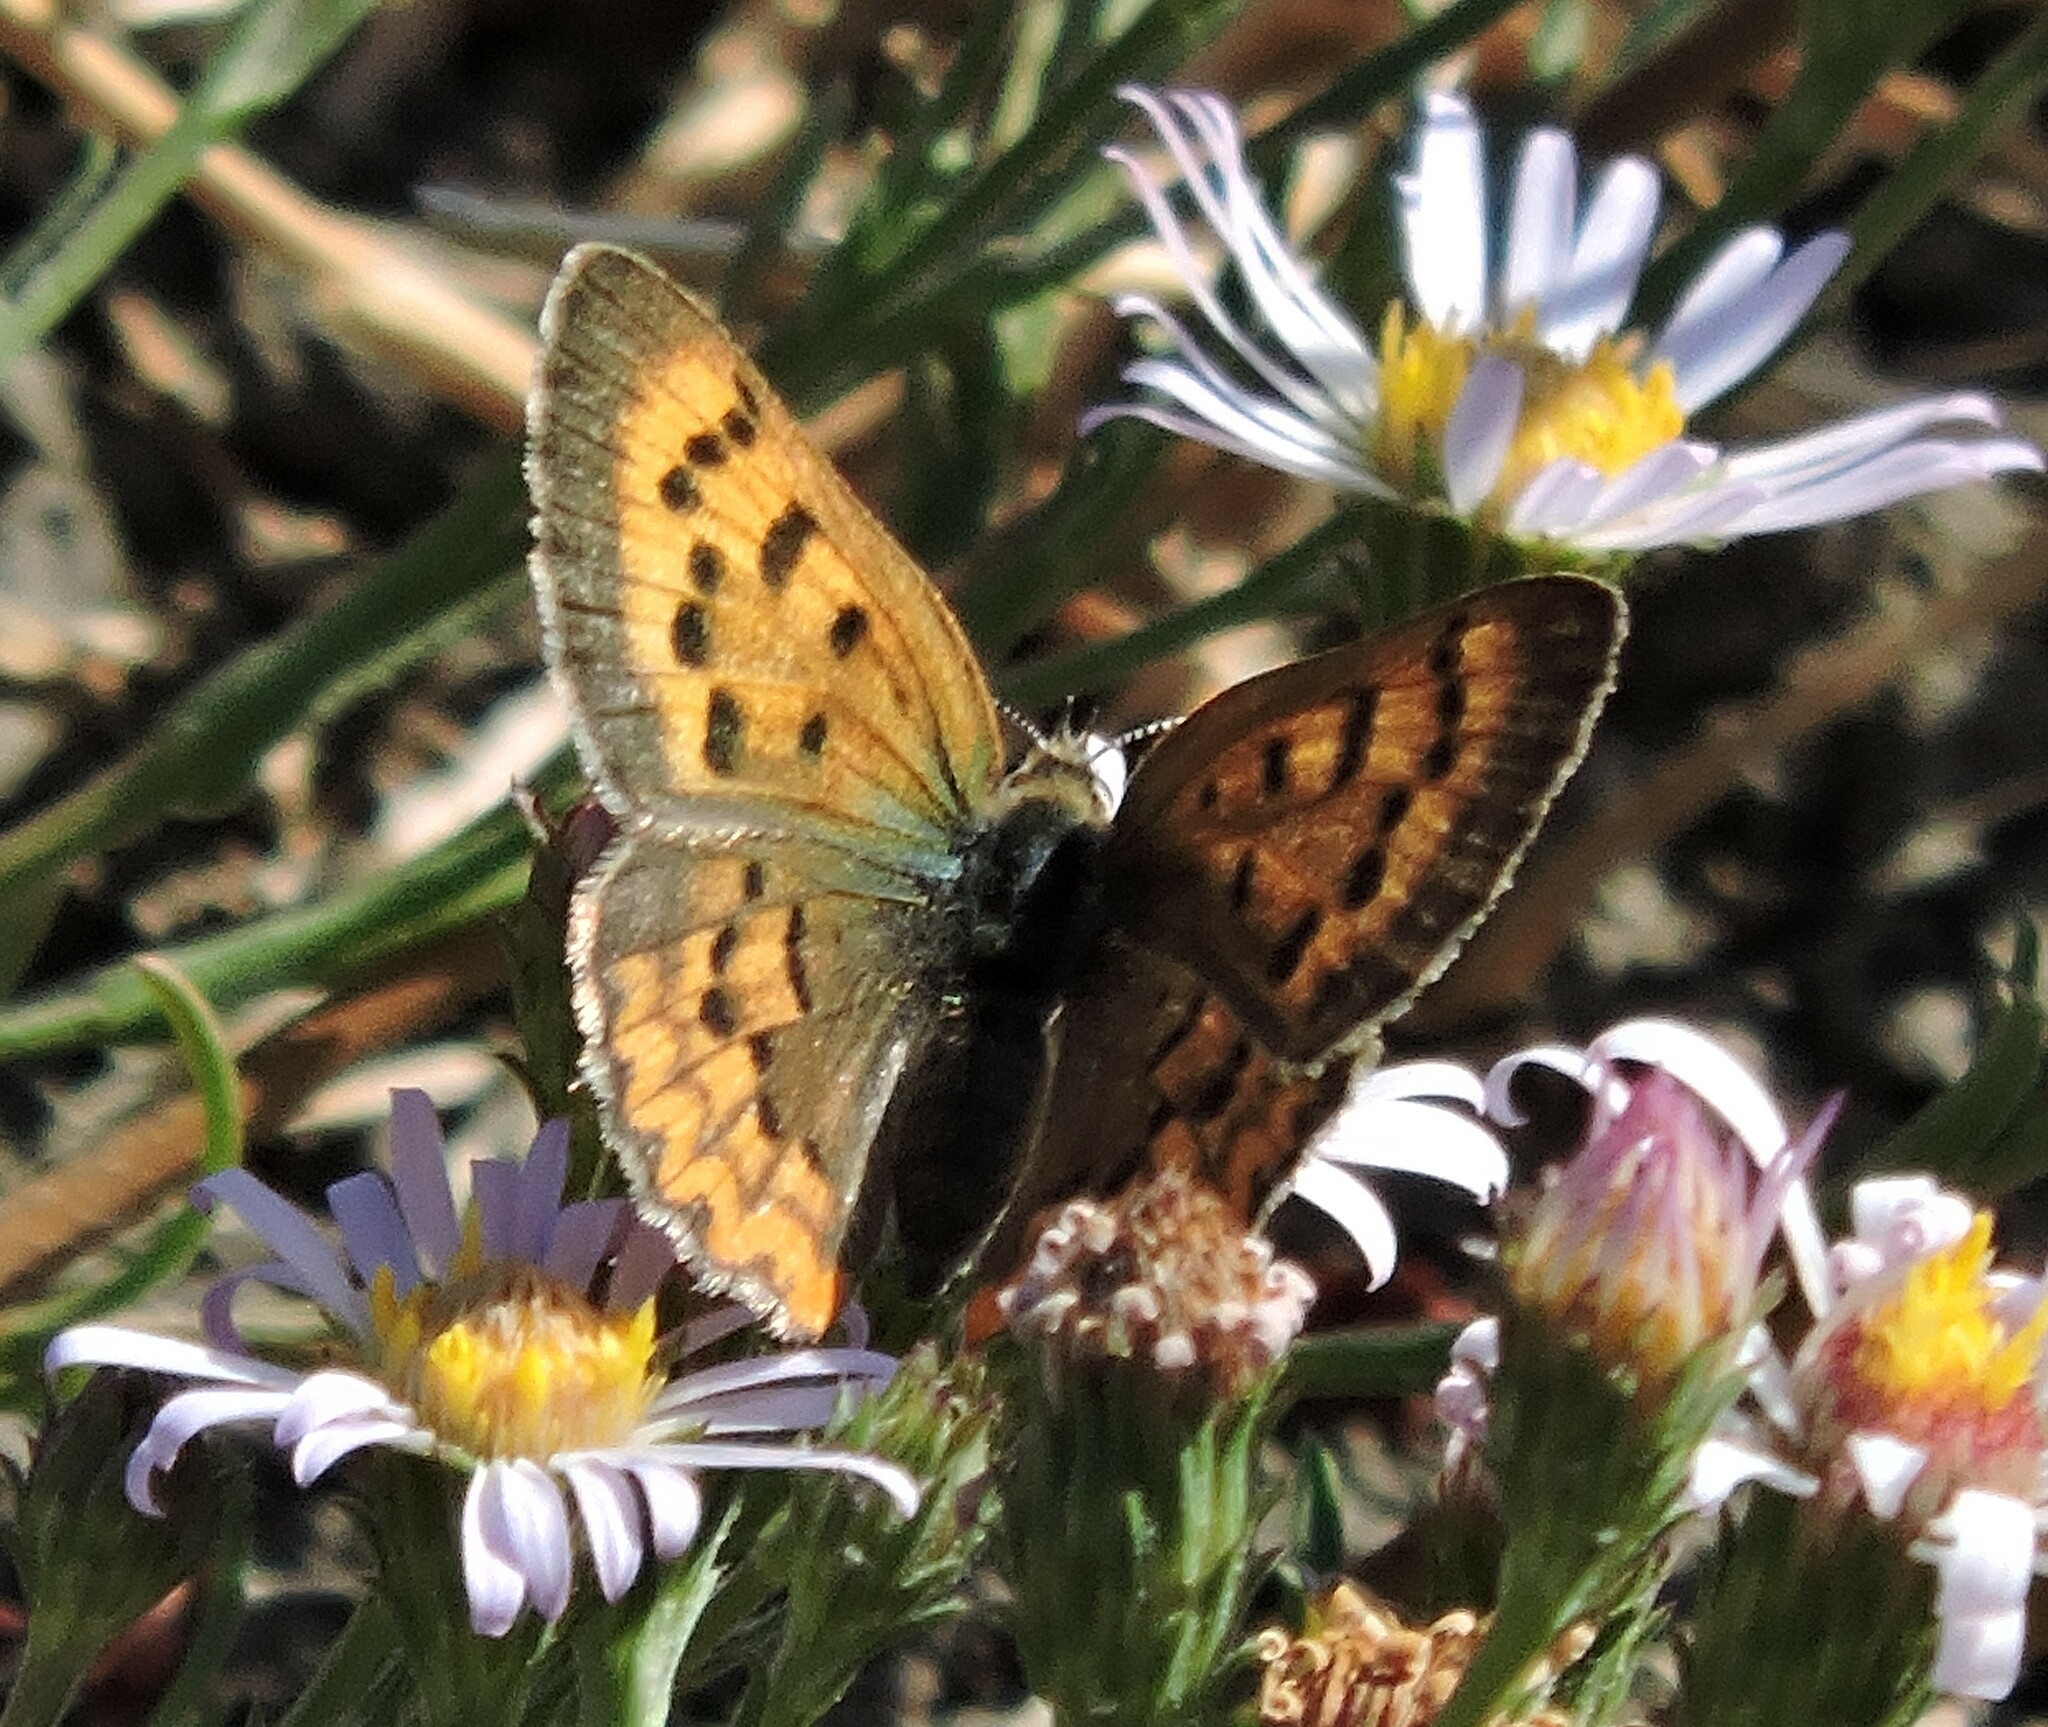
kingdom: Animalia
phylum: Arthropoda
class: Insecta
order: Lepidoptera
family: Lycaenidae
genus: Tharsalea
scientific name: Tharsalea helloides
